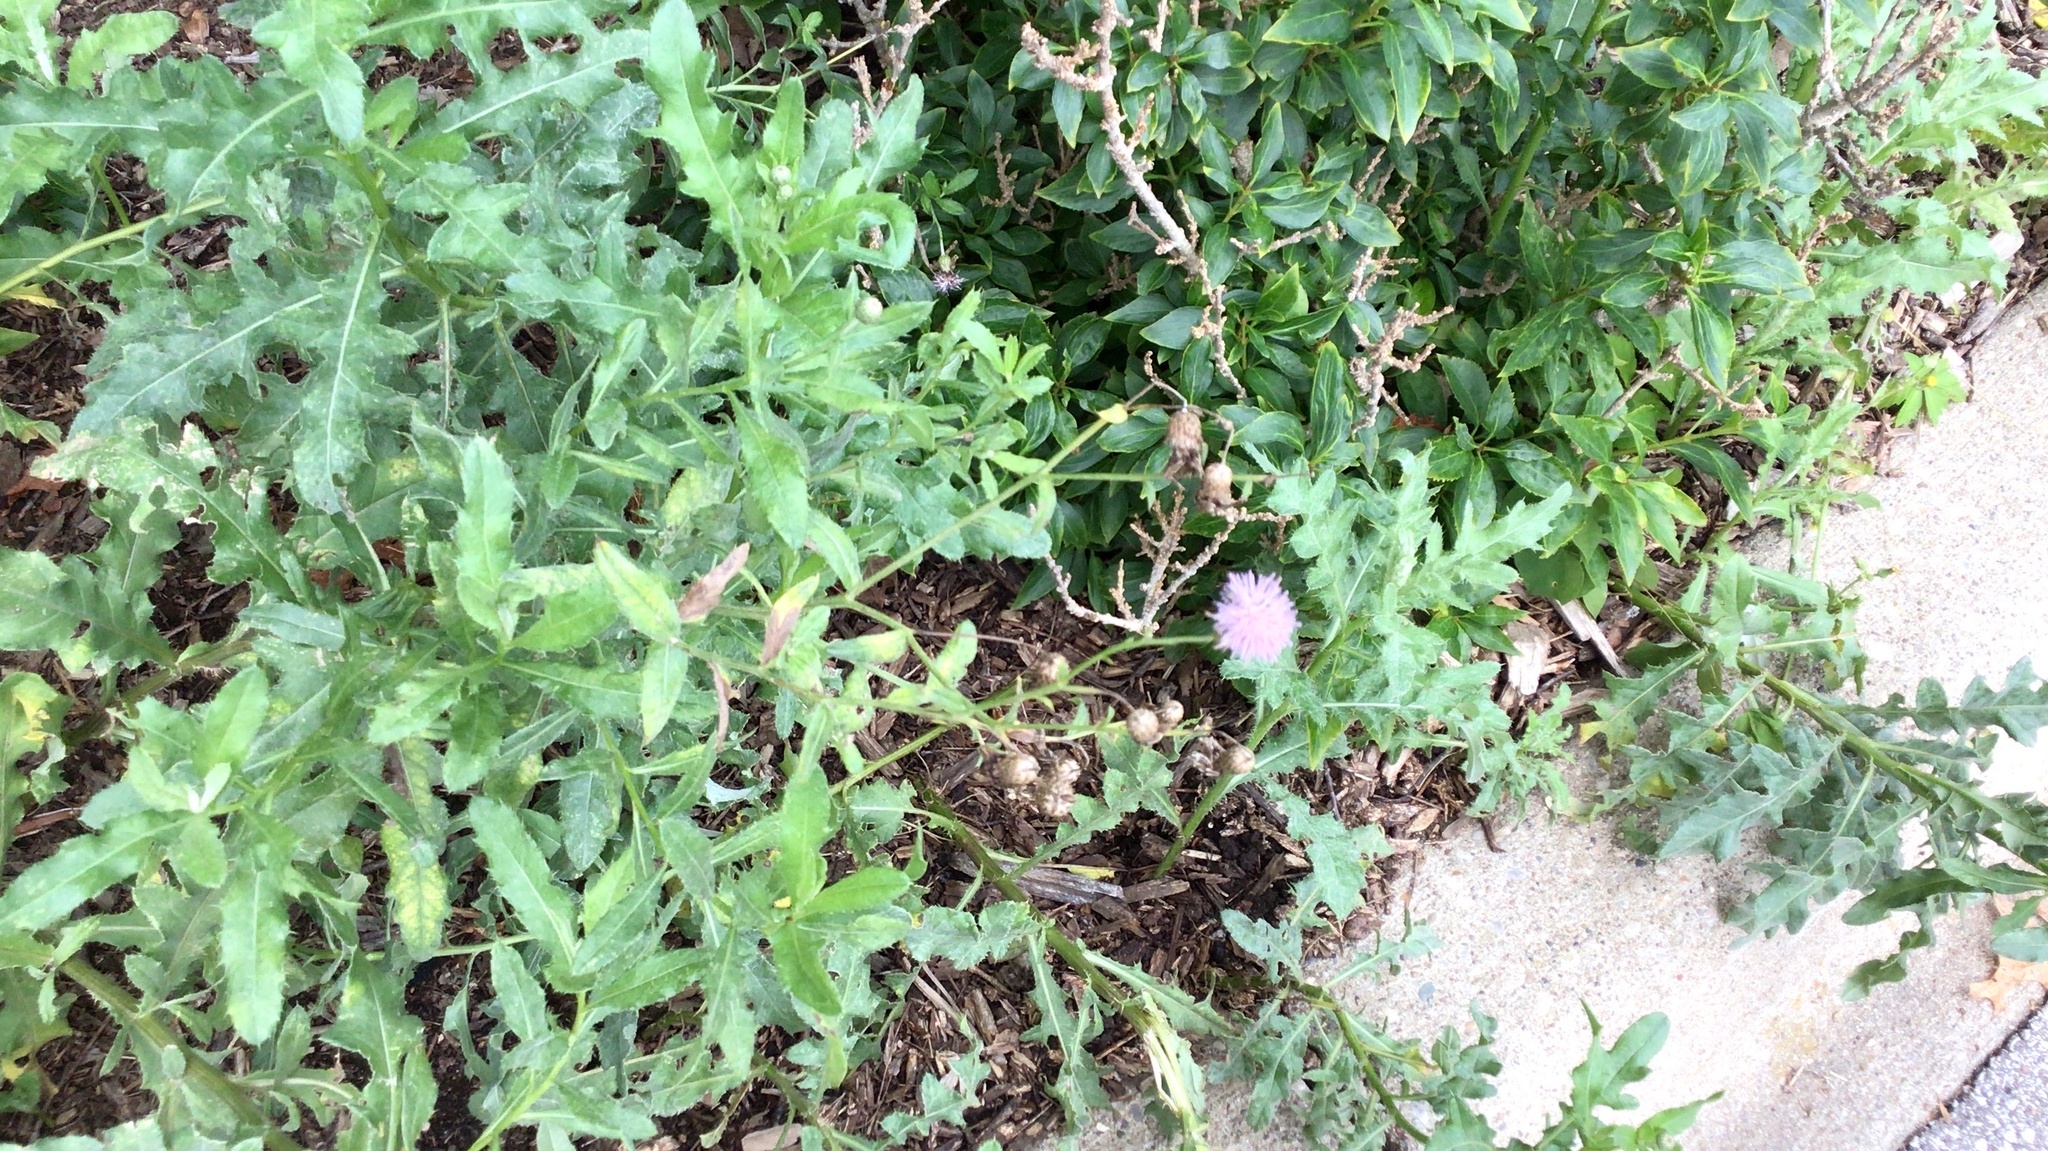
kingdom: Plantae
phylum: Tracheophyta
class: Magnoliopsida
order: Asterales
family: Asteraceae
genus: Cirsium
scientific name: Cirsium arvense
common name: Creeping thistle
